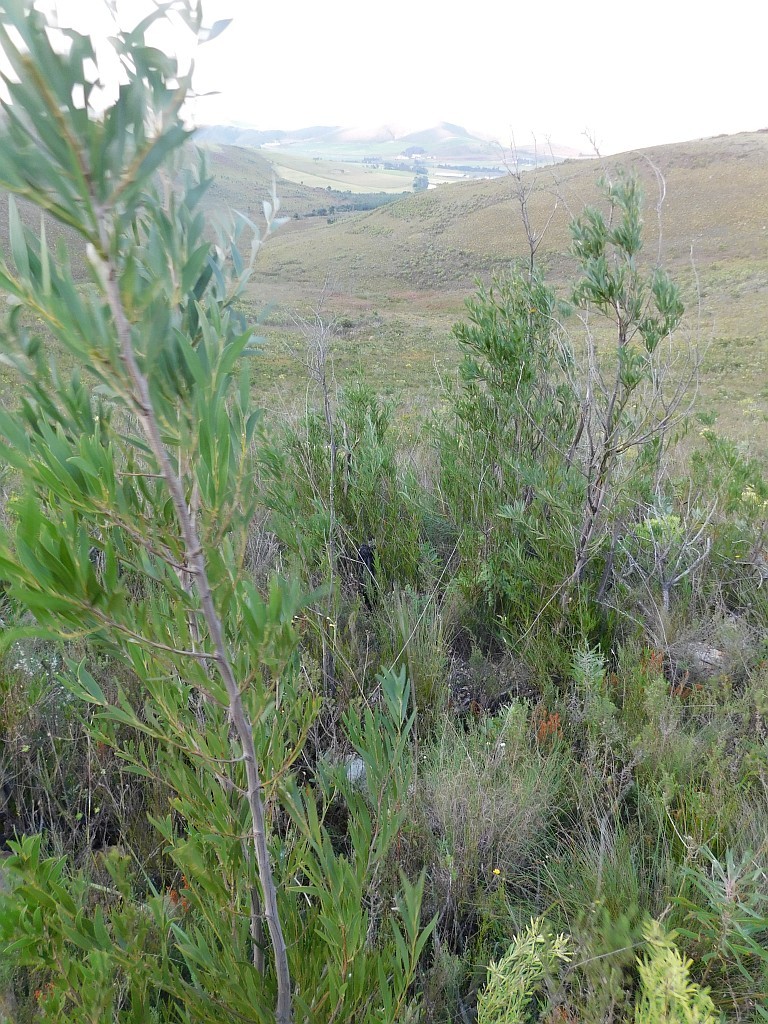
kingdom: Plantae
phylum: Tracheophyta
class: Magnoliopsida
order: Fabales
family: Fabaceae
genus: Acacia
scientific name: Acacia melanoxylon
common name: Blackwood
